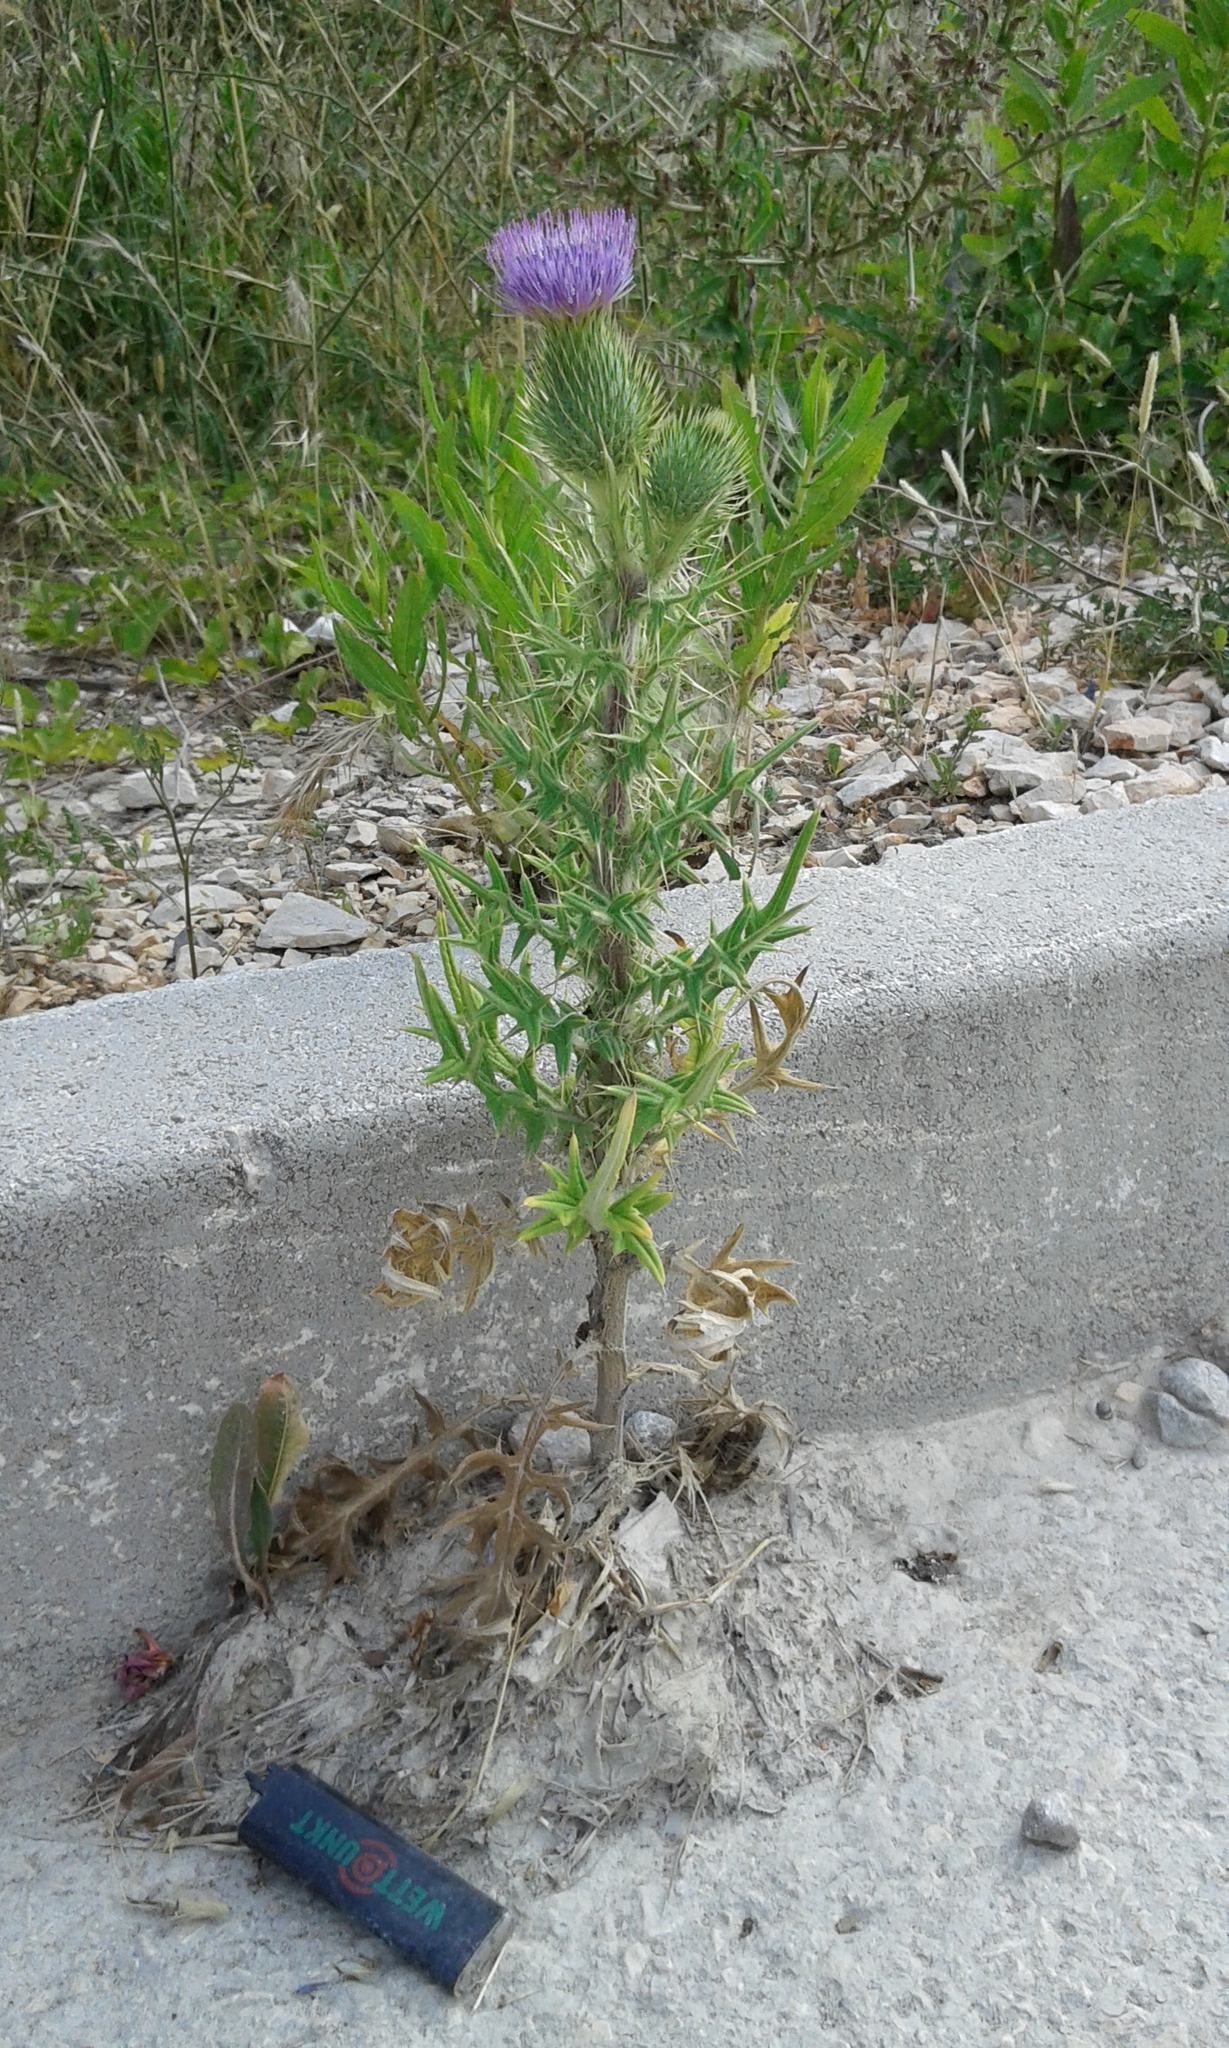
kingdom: Plantae
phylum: Tracheophyta
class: Magnoliopsida
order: Asterales
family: Asteraceae
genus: Cirsium
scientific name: Cirsium vulgare
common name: Bull thistle
